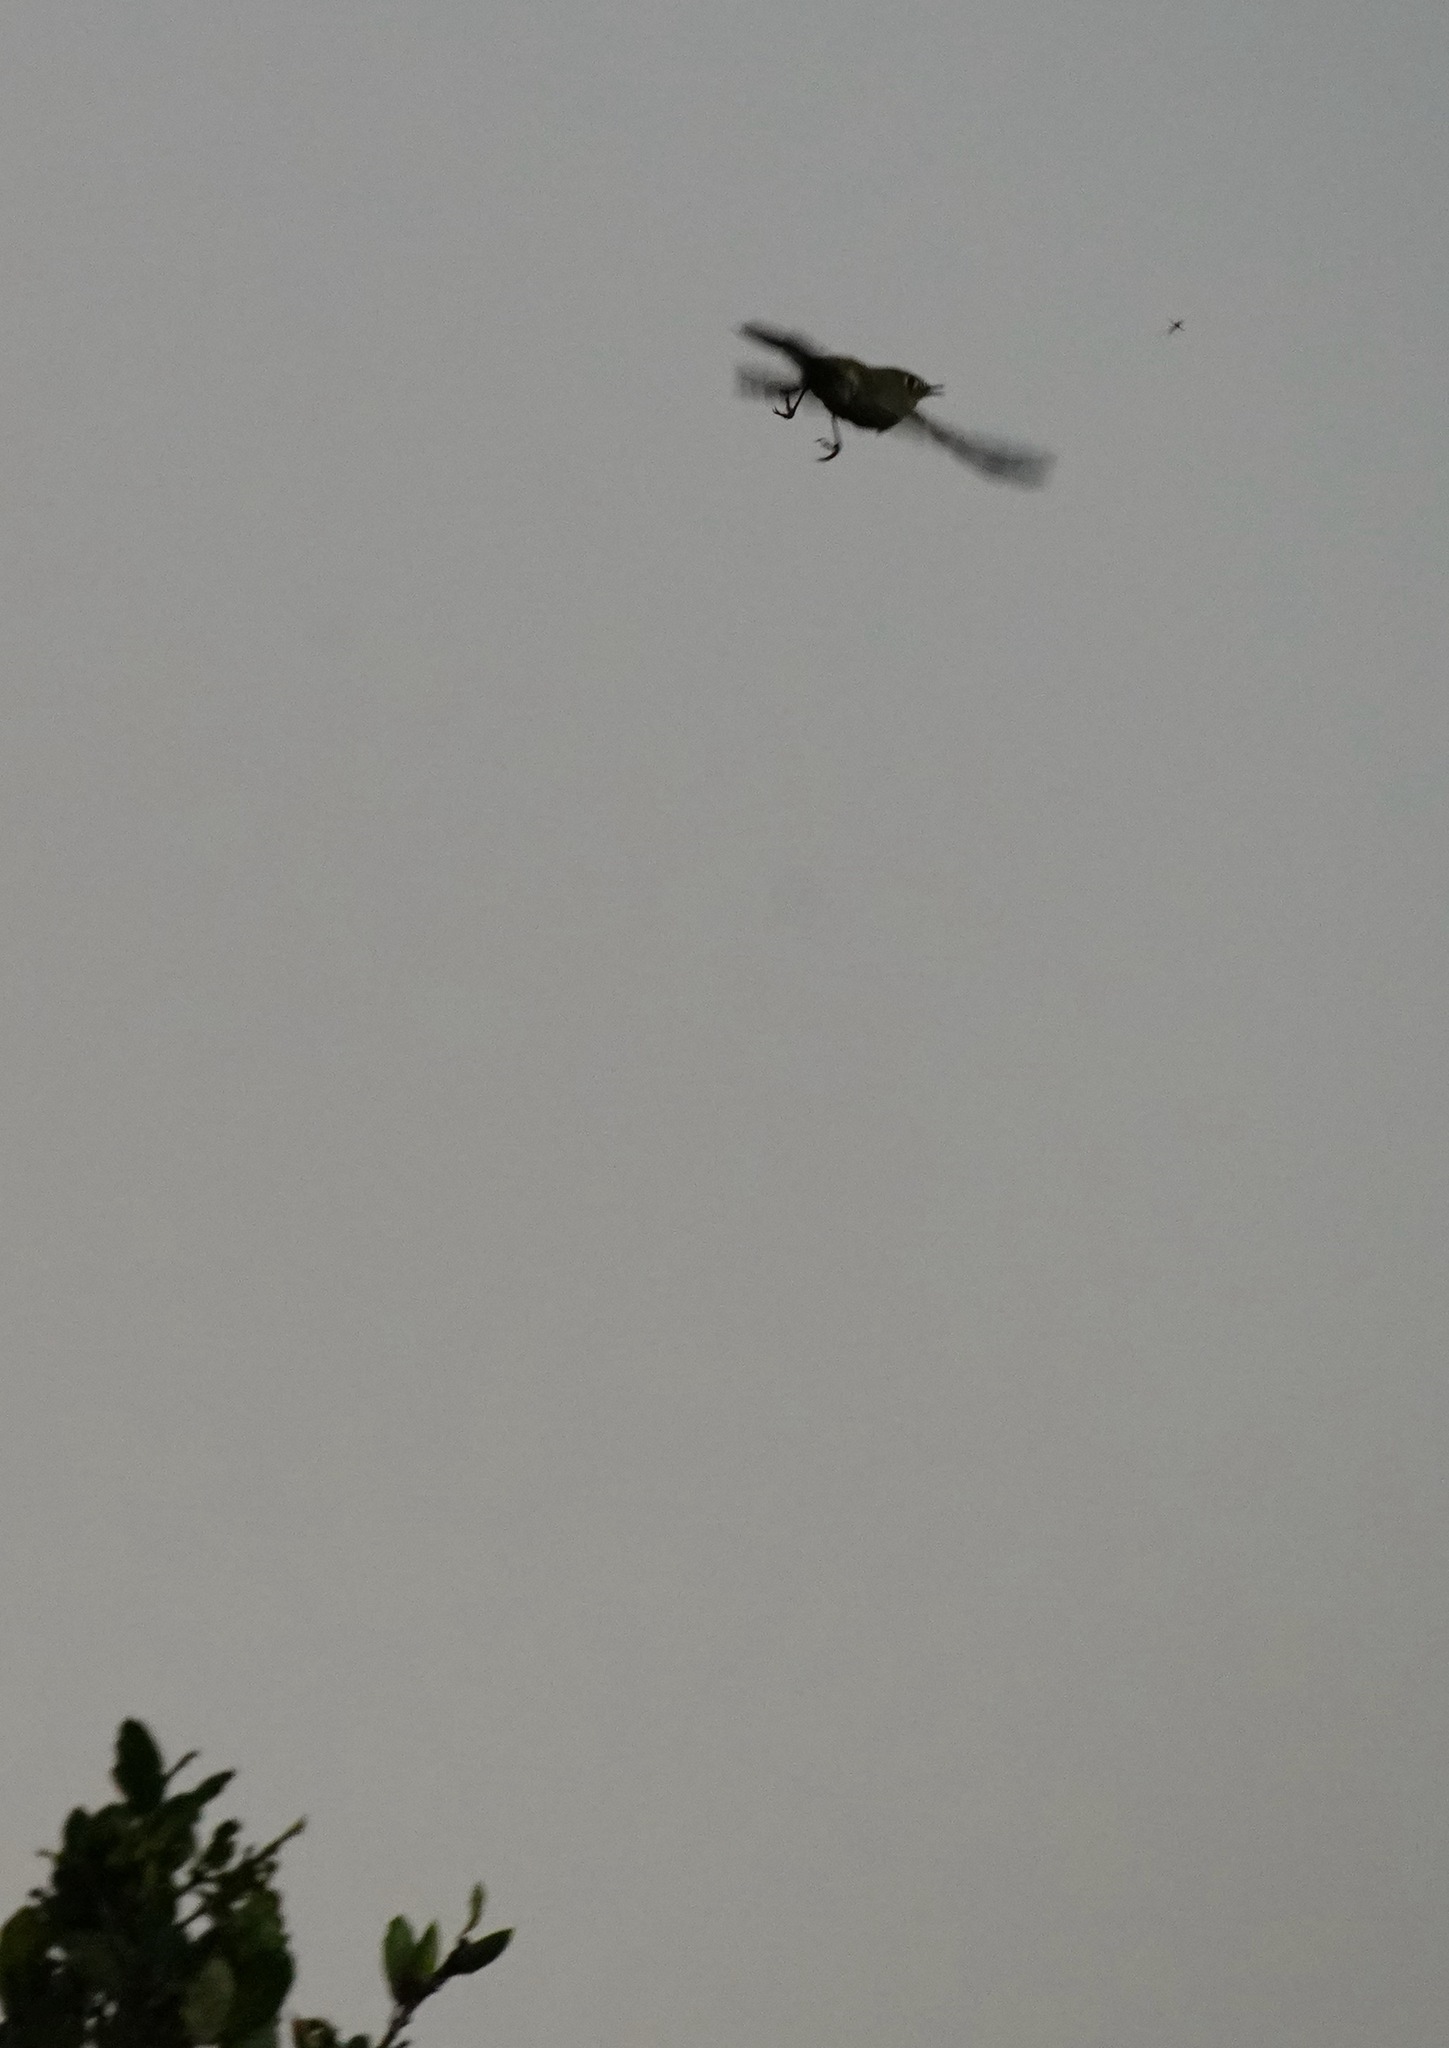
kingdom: Animalia
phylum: Chordata
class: Aves
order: Passeriformes
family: Regulidae
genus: Regulus
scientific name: Regulus calendula
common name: Ruby-crowned kinglet
